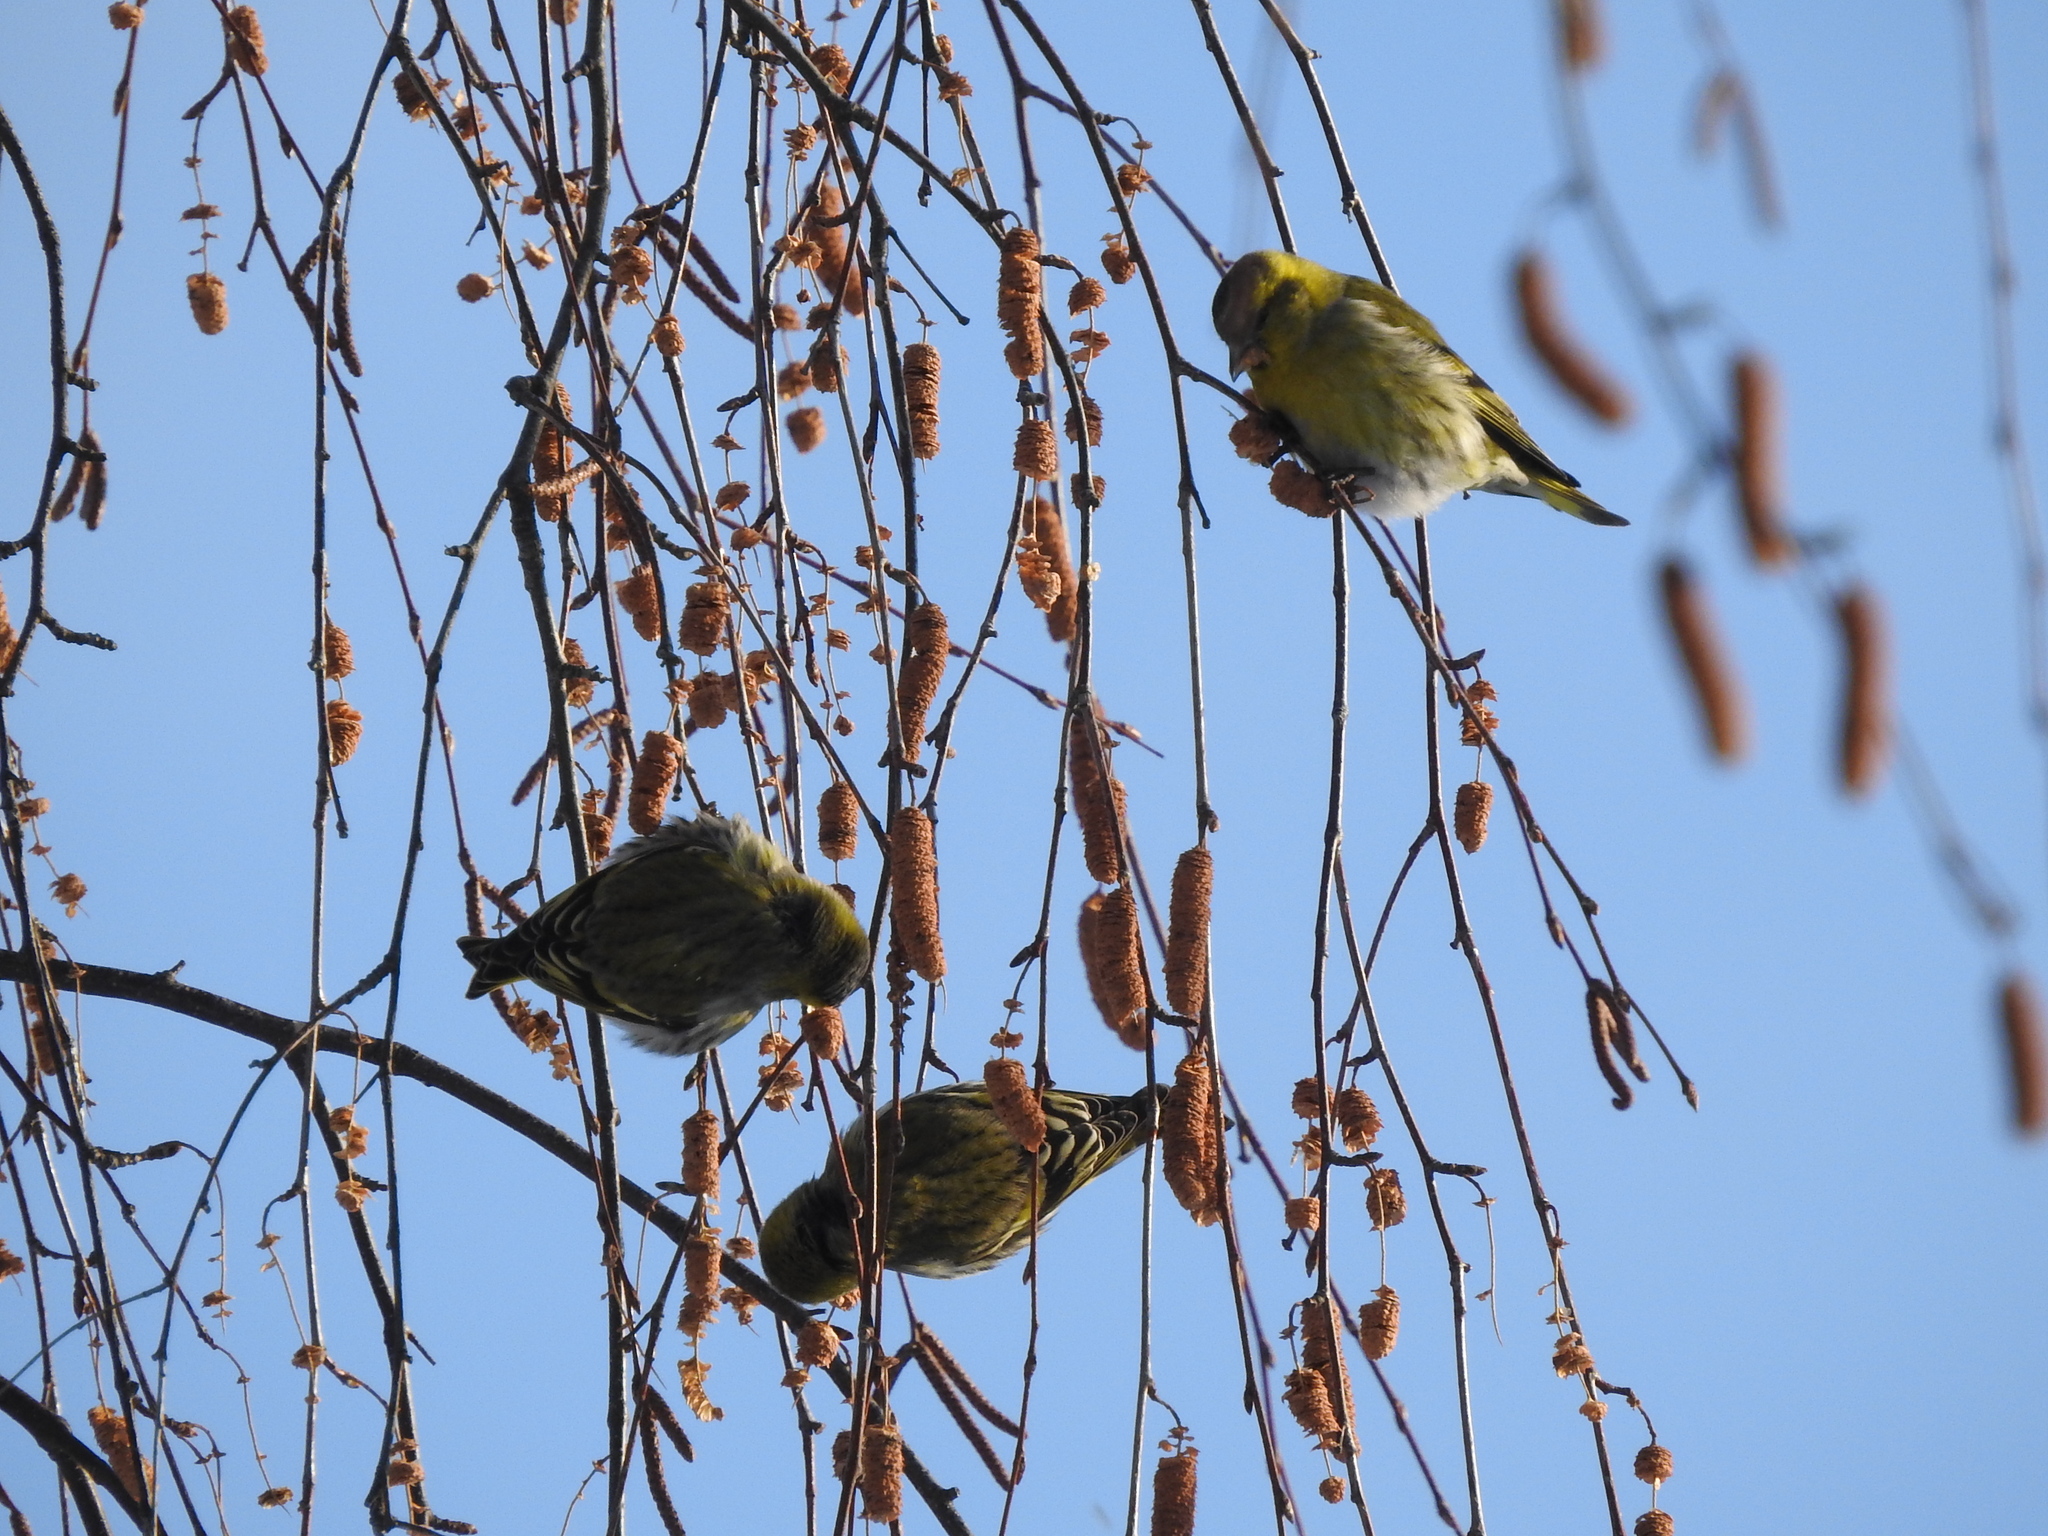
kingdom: Animalia
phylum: Chordata
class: Aves
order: Passeriformes
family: Fringillidae
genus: Spinus
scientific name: Spinus spinus
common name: Eurasian siskin
